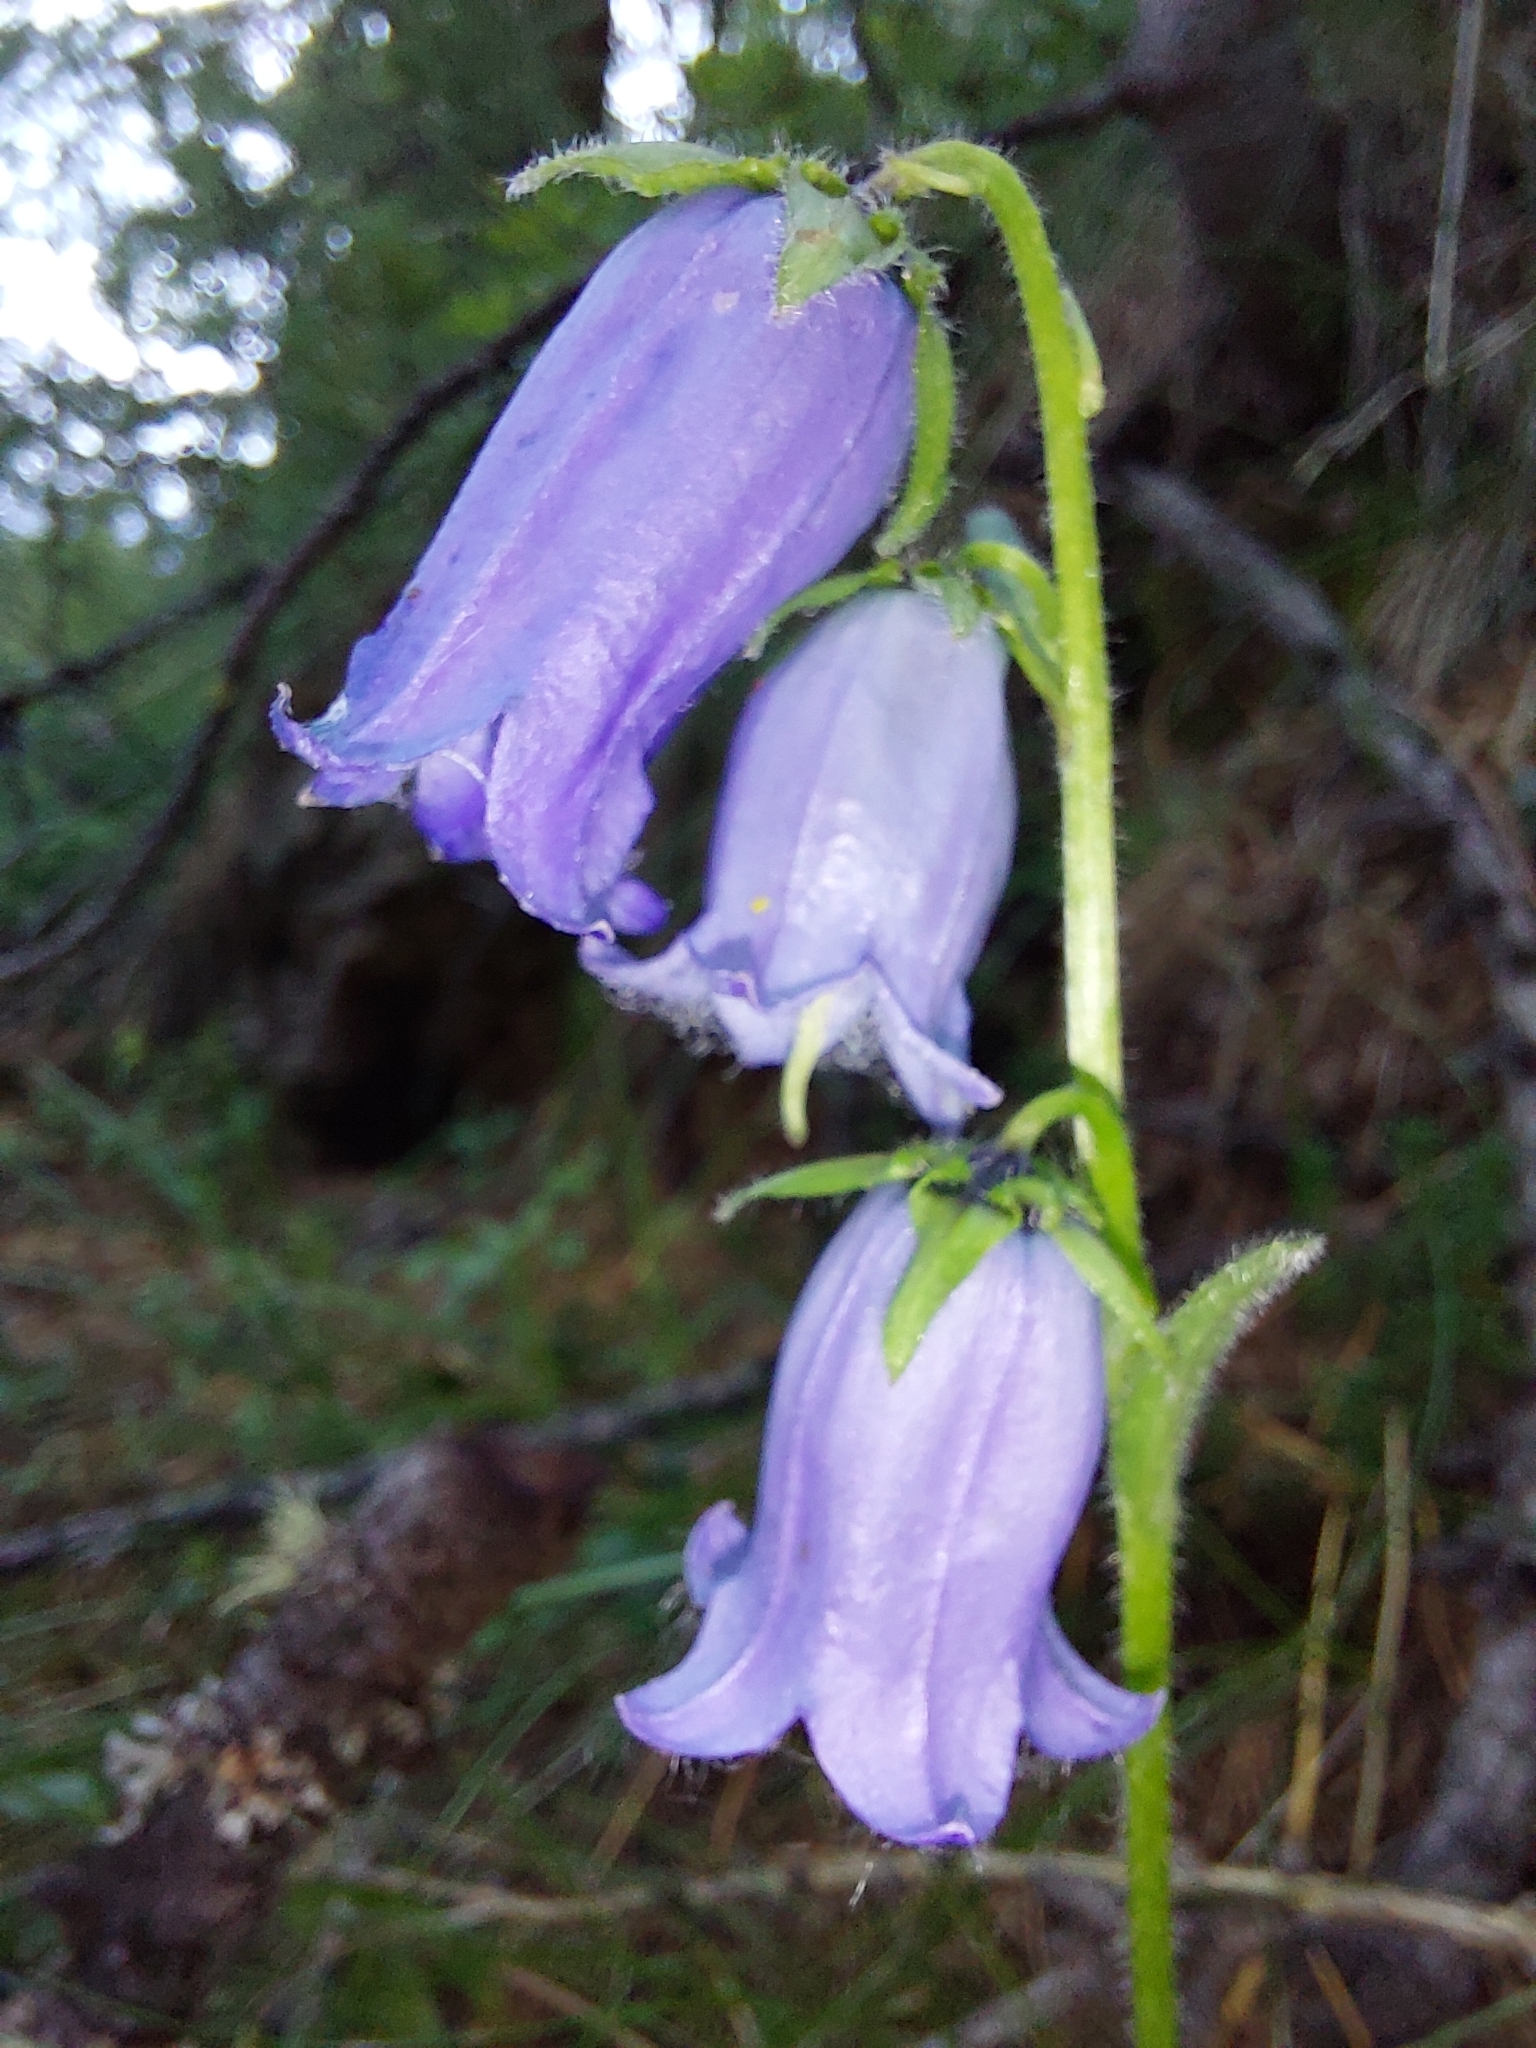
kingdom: Plantae
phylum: Tracheophyta
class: Magnoliopsida
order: Asterales
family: Campanulaceae
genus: Campanula
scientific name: Campanula barbata
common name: Bearded bellflower
